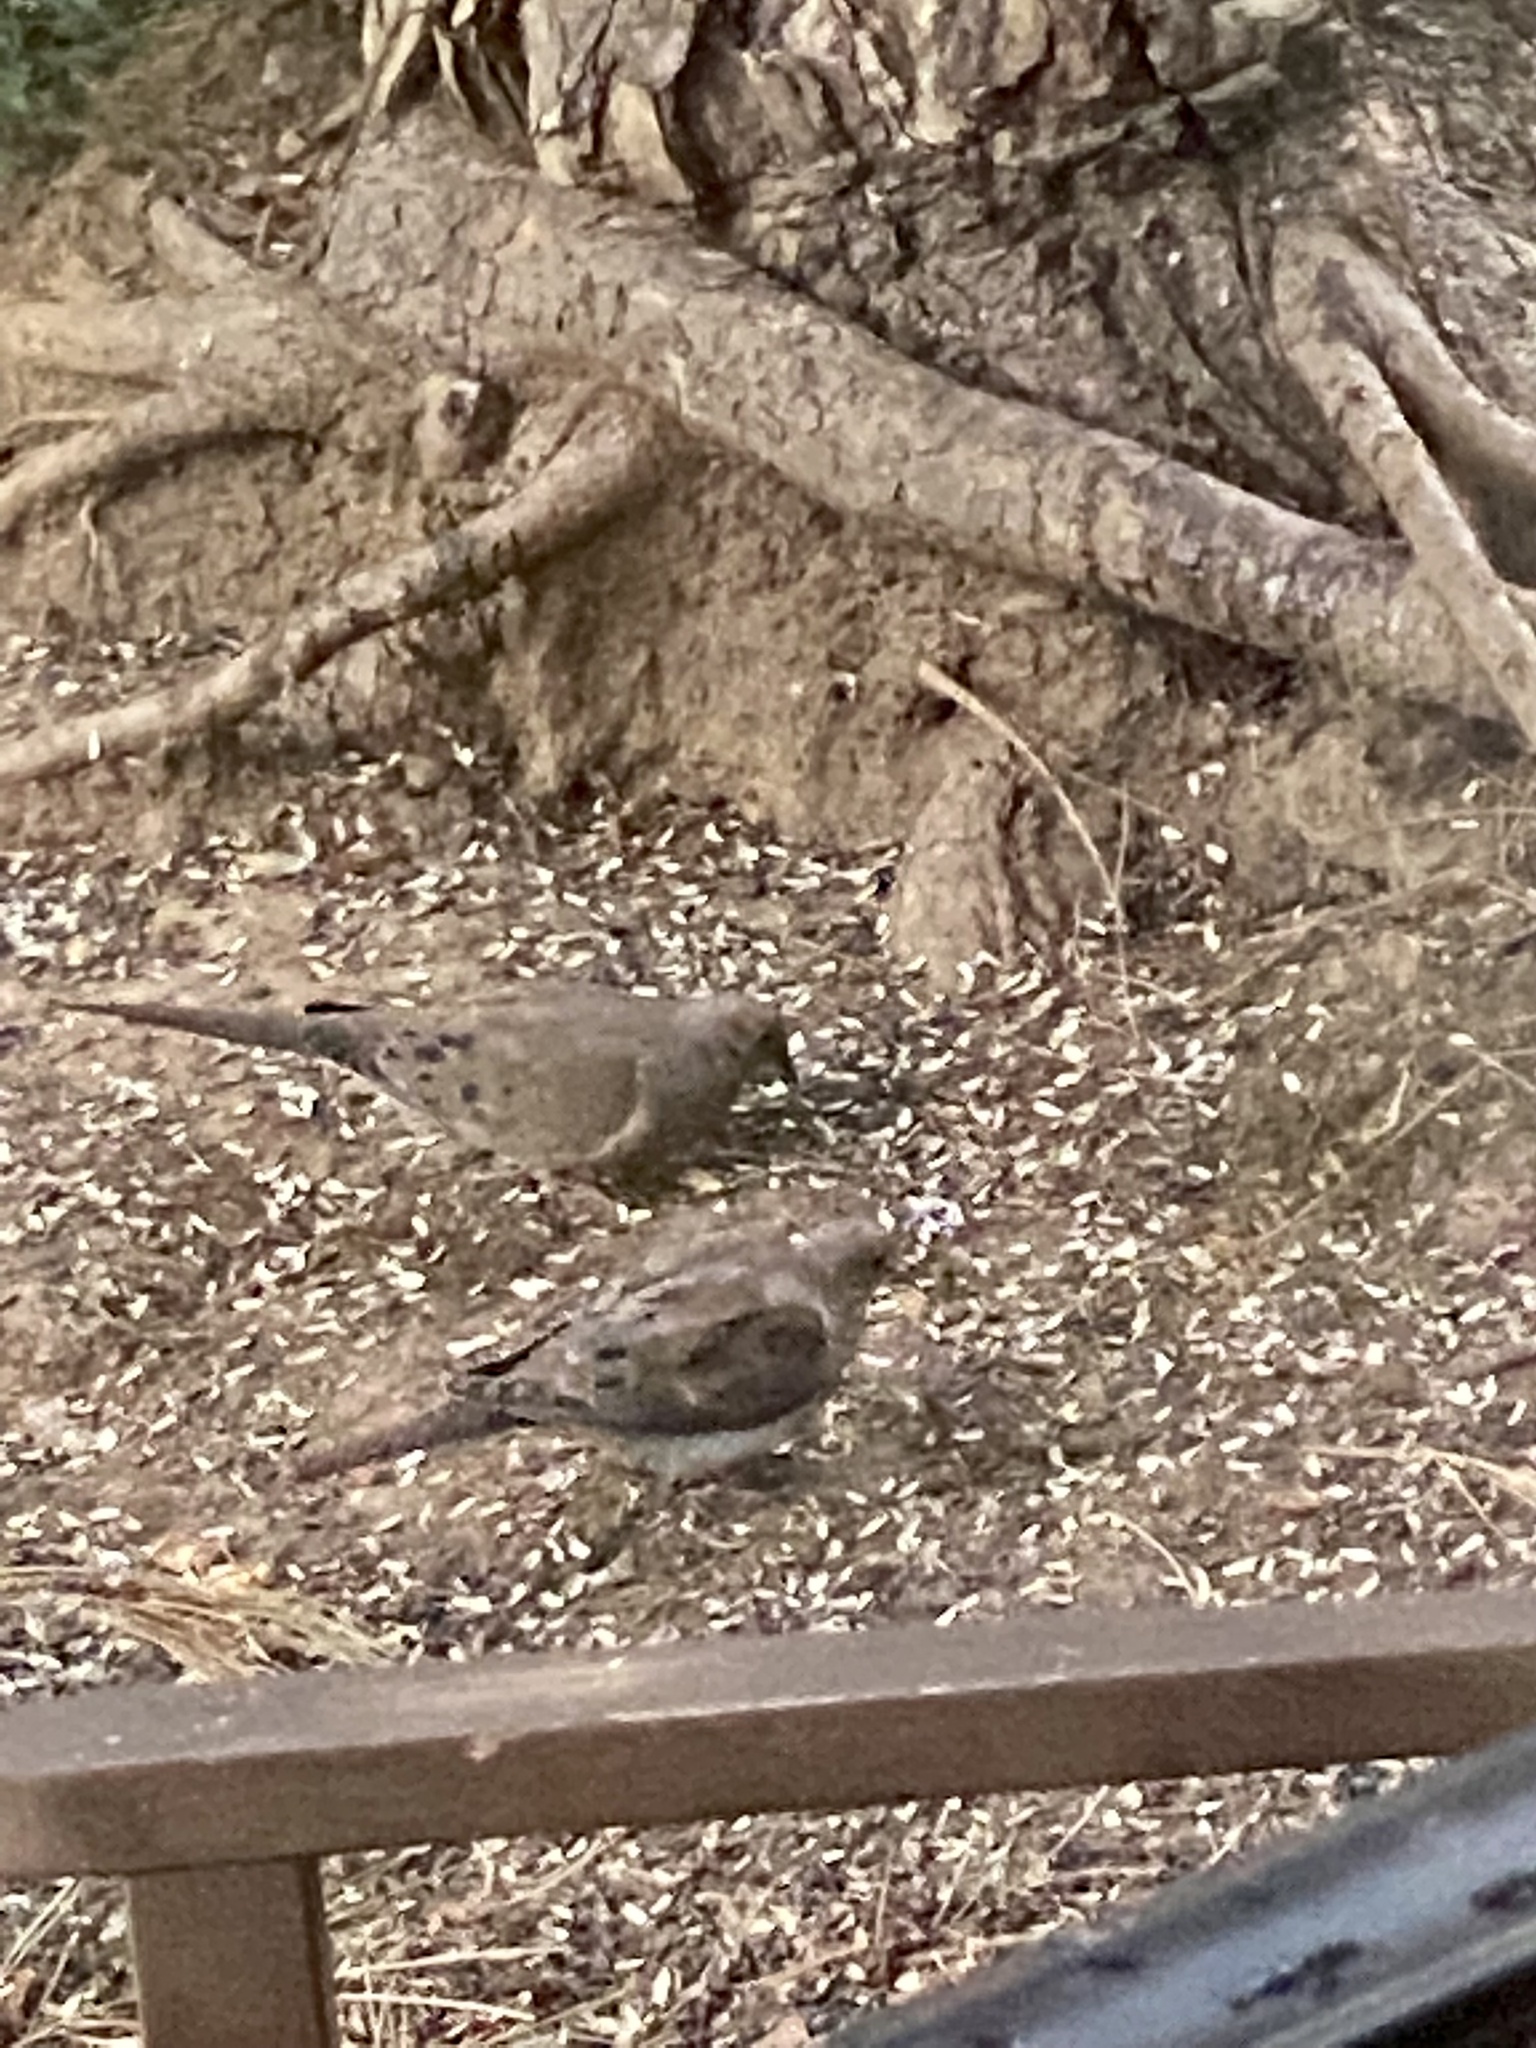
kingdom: Animalia
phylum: Chordata
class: Aves
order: Columbiformes
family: Columbidae
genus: Zenaida
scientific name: Zenaida macroura
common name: Mourning dove
